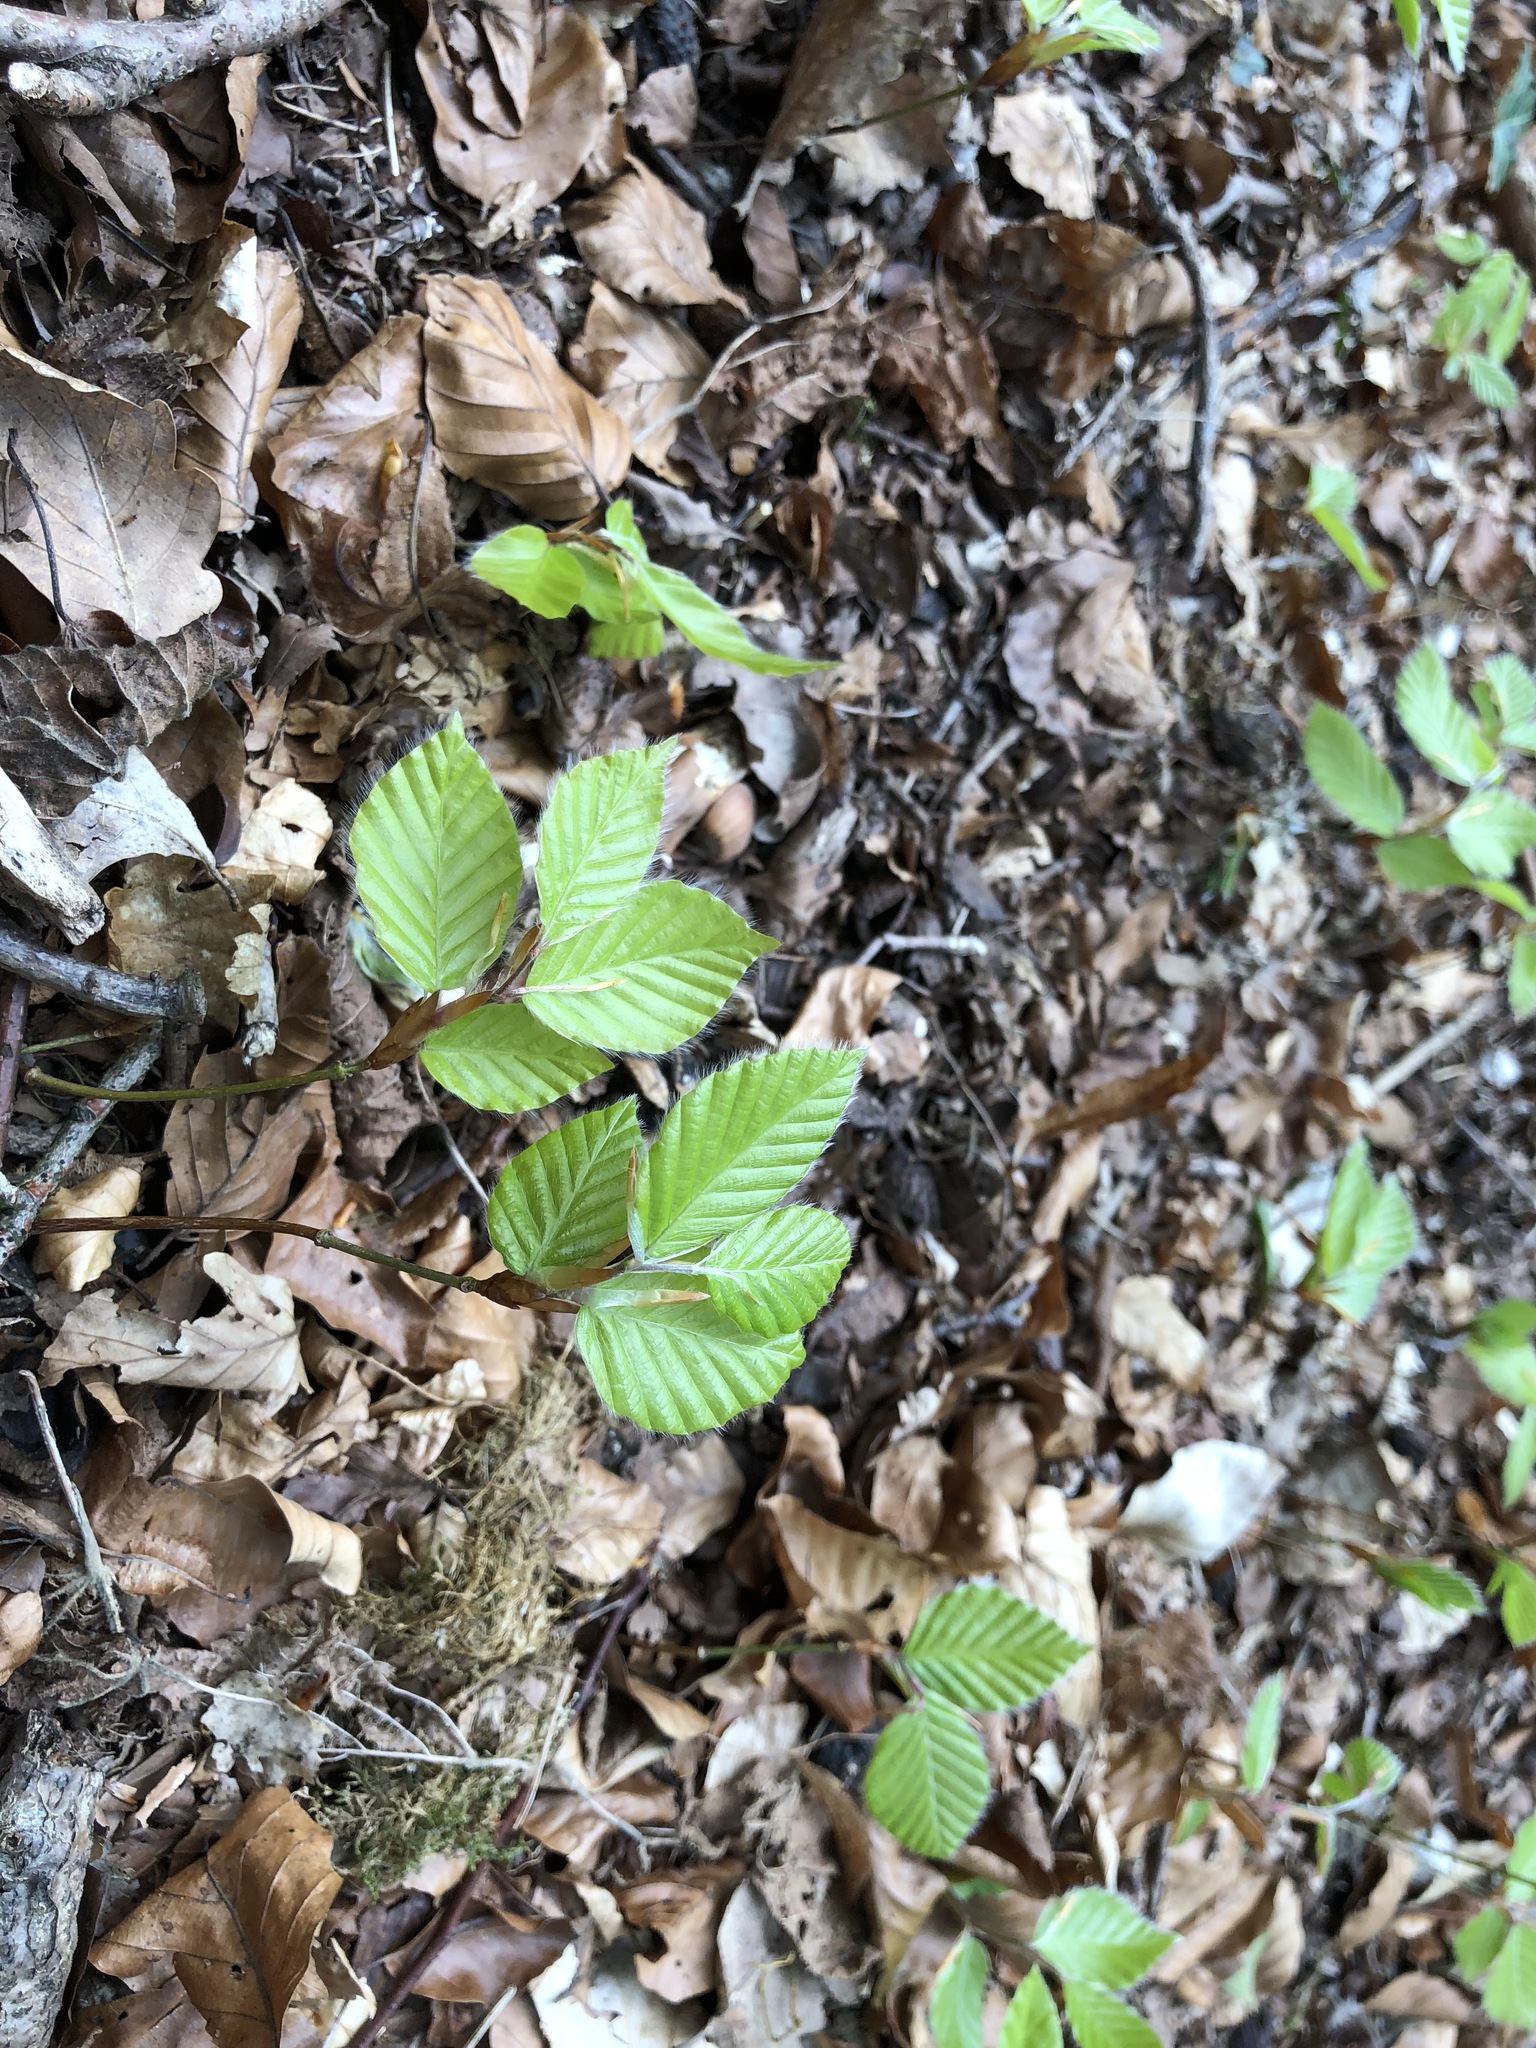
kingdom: Plantae
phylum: Tracheophyta
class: Magnoliopsida
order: Fagales
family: Fagaceae
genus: Fagus
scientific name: Fagus sylvatica
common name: Beech
